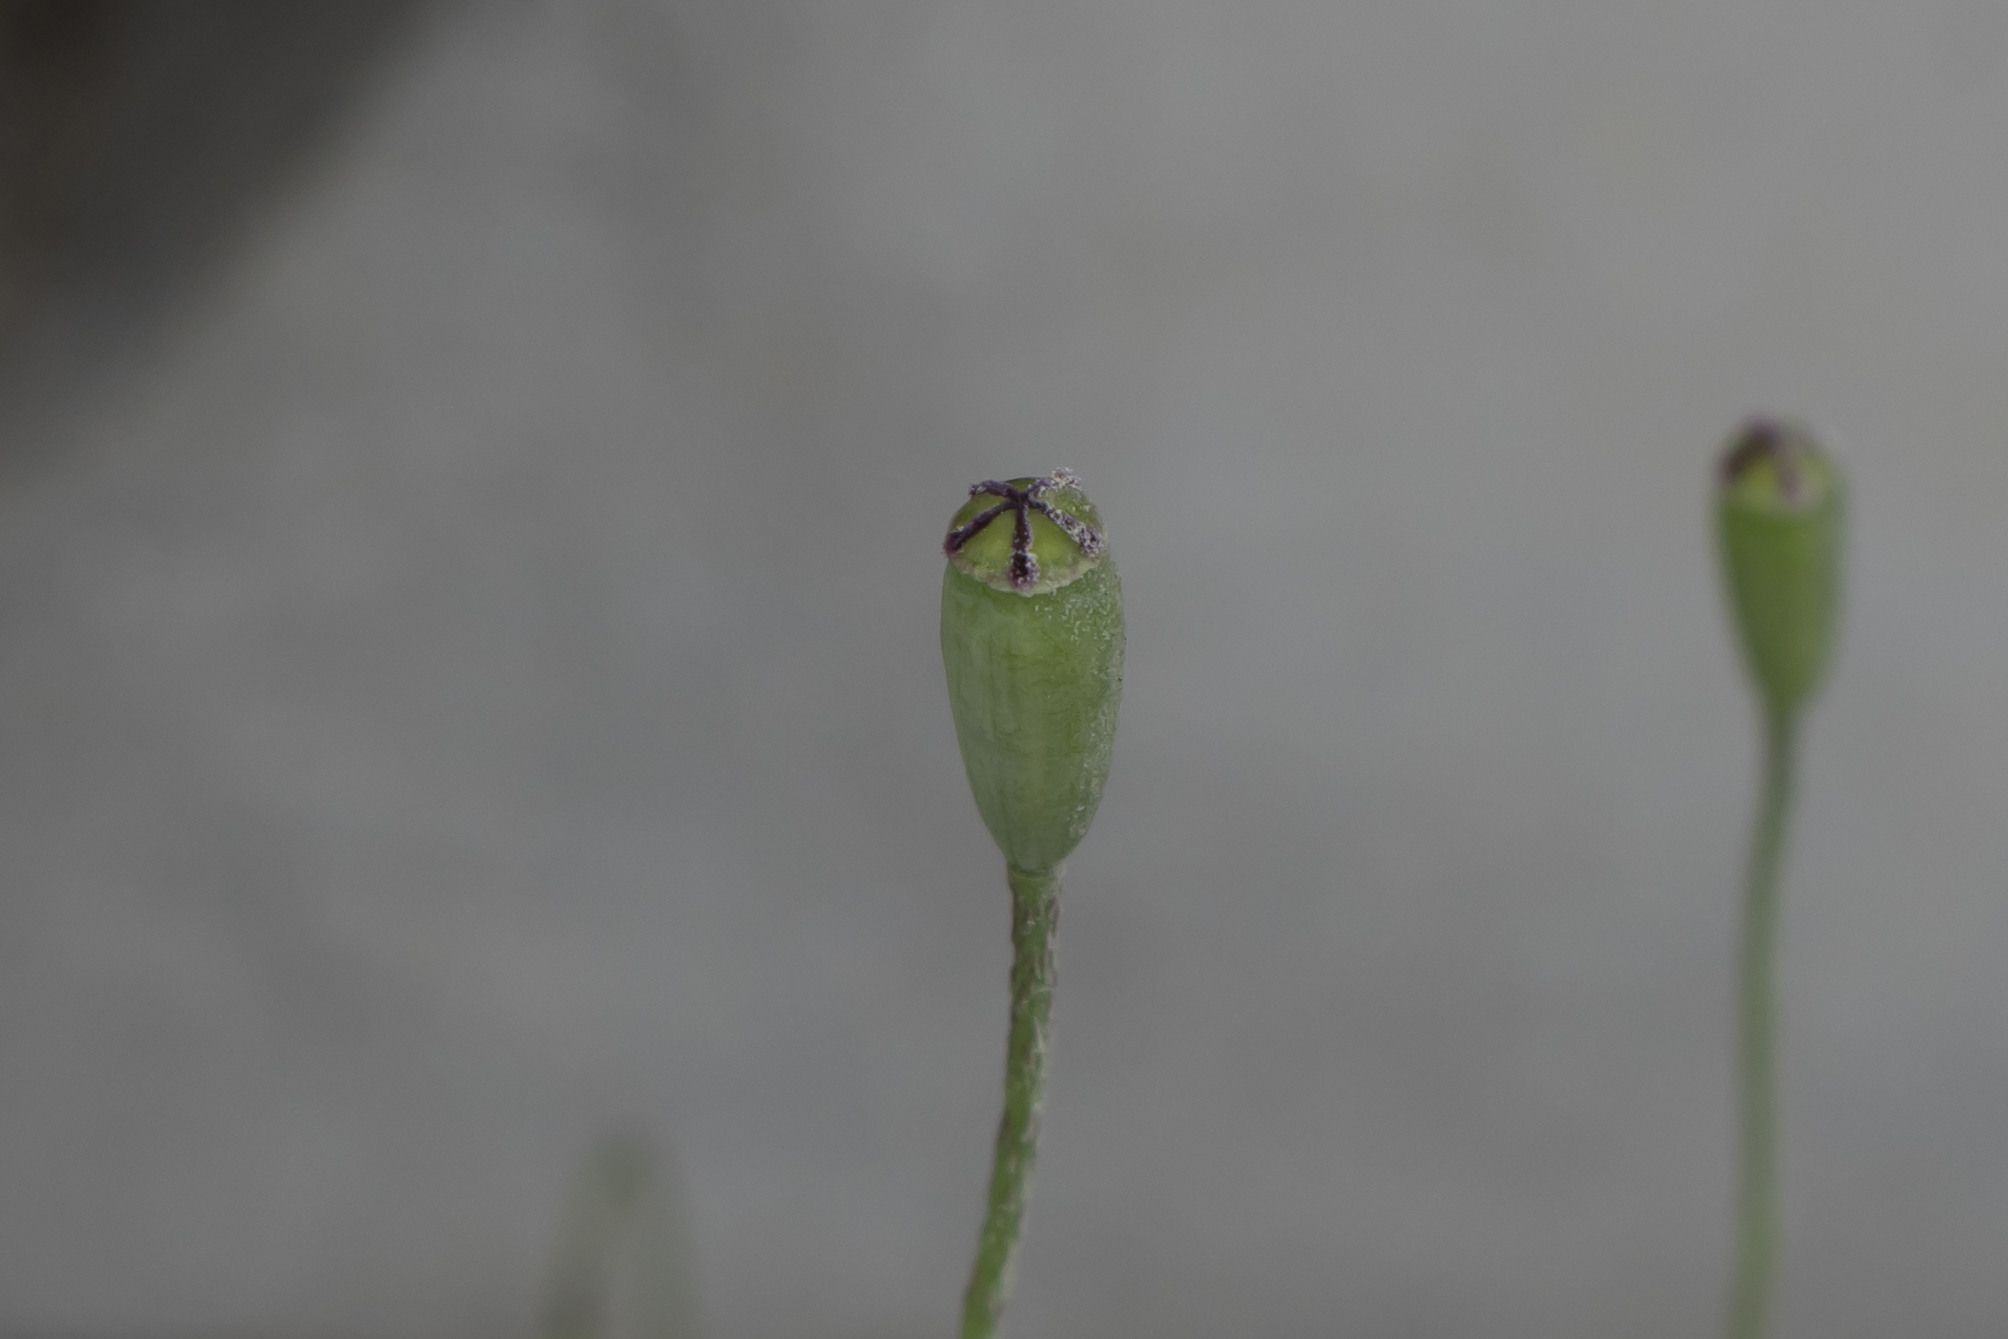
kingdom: Plantae
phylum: Tracheophyta
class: Magnoliopsida
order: Ranunculales
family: Papaveraceae
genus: Papaver
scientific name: Papaver dubium
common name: Long-headed poppy
